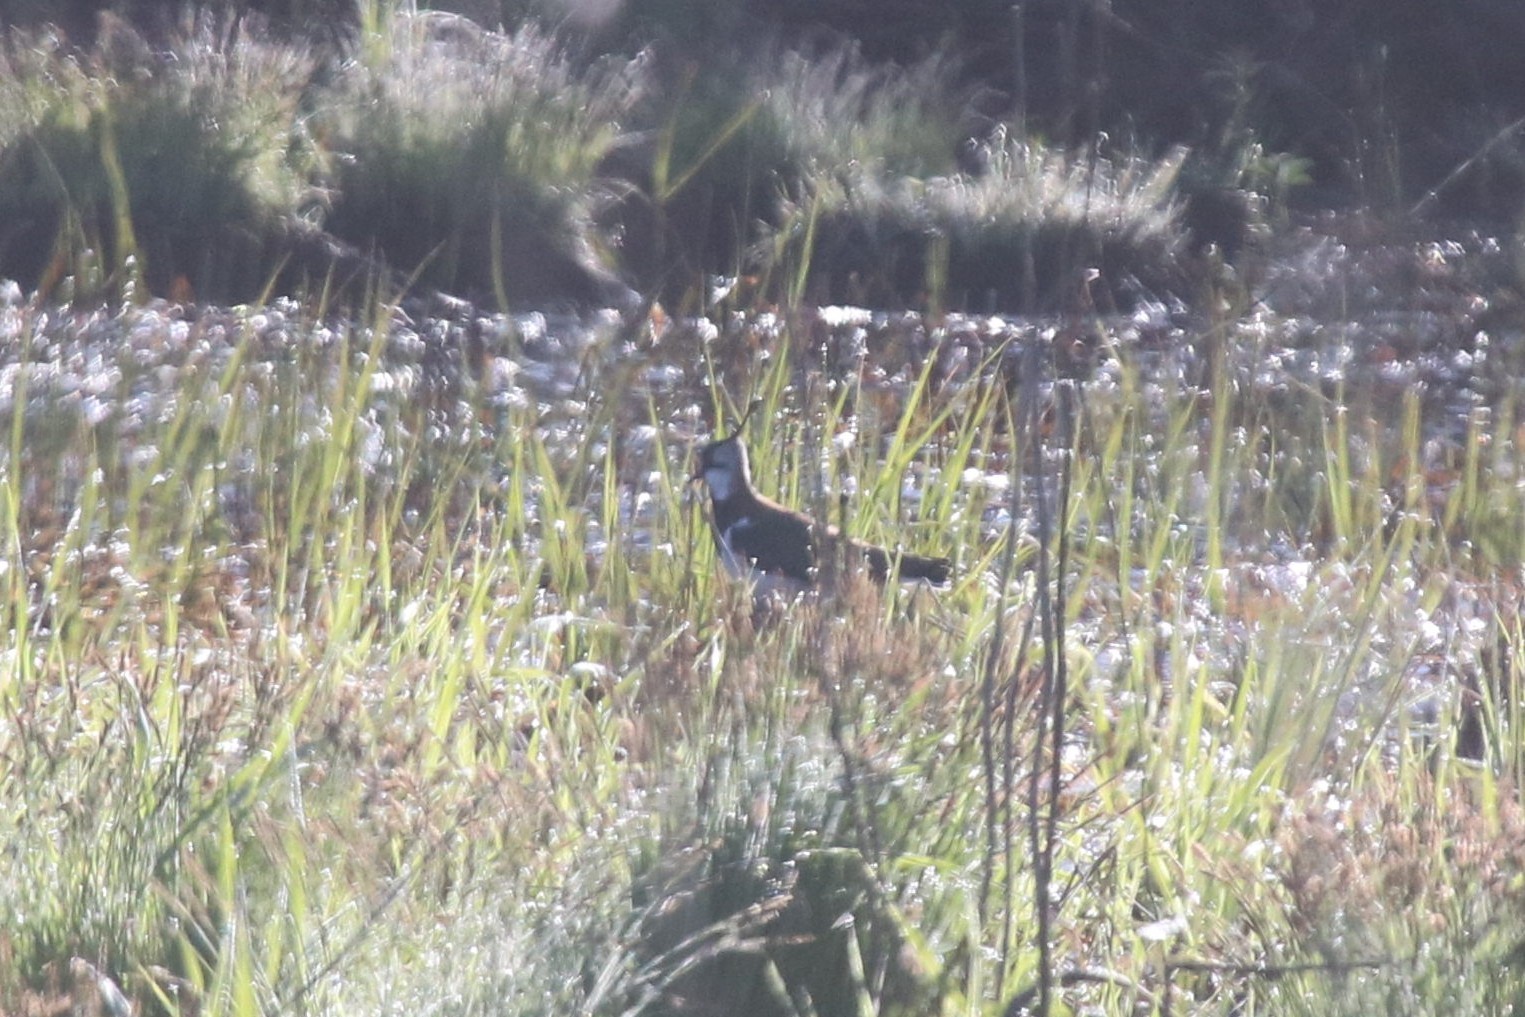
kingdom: Animalia
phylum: Chordata
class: Aves
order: Charadriiformes
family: Charadriidae
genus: Vanellus
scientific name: Vanellus vanellus
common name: Northern lapwing
